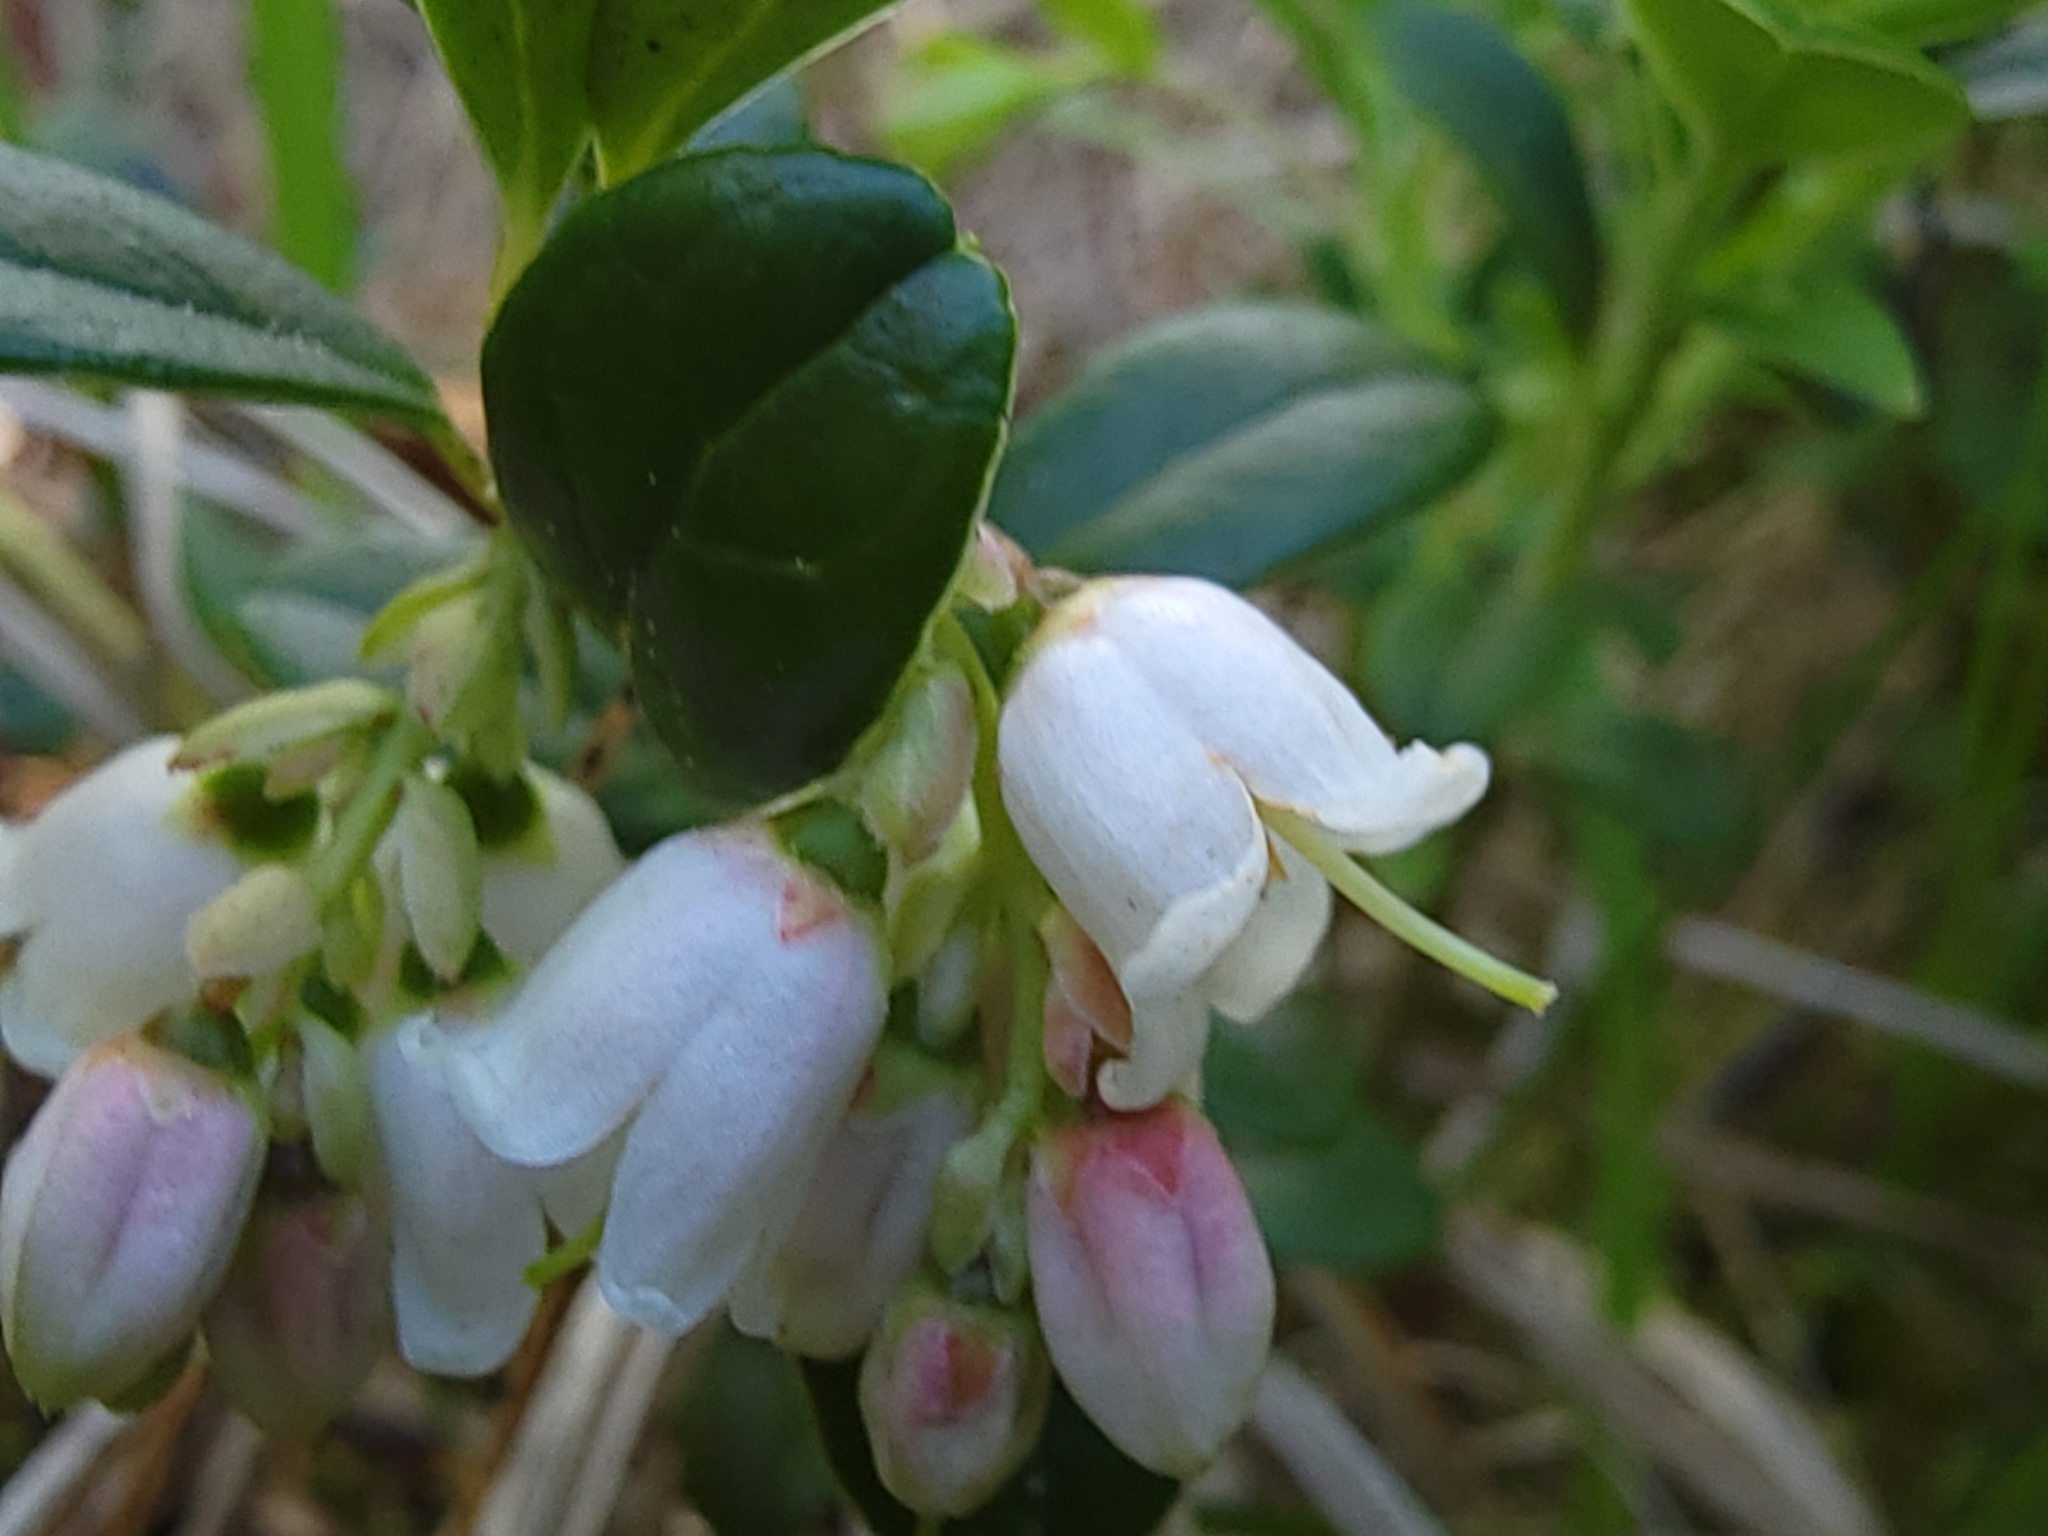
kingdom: Plantae
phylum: Tracheophyta
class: Magnoliopsida
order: Ericales
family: Ericaceae
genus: Vaccinium
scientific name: Vaccinium vitis-idaea
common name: Cowberry
